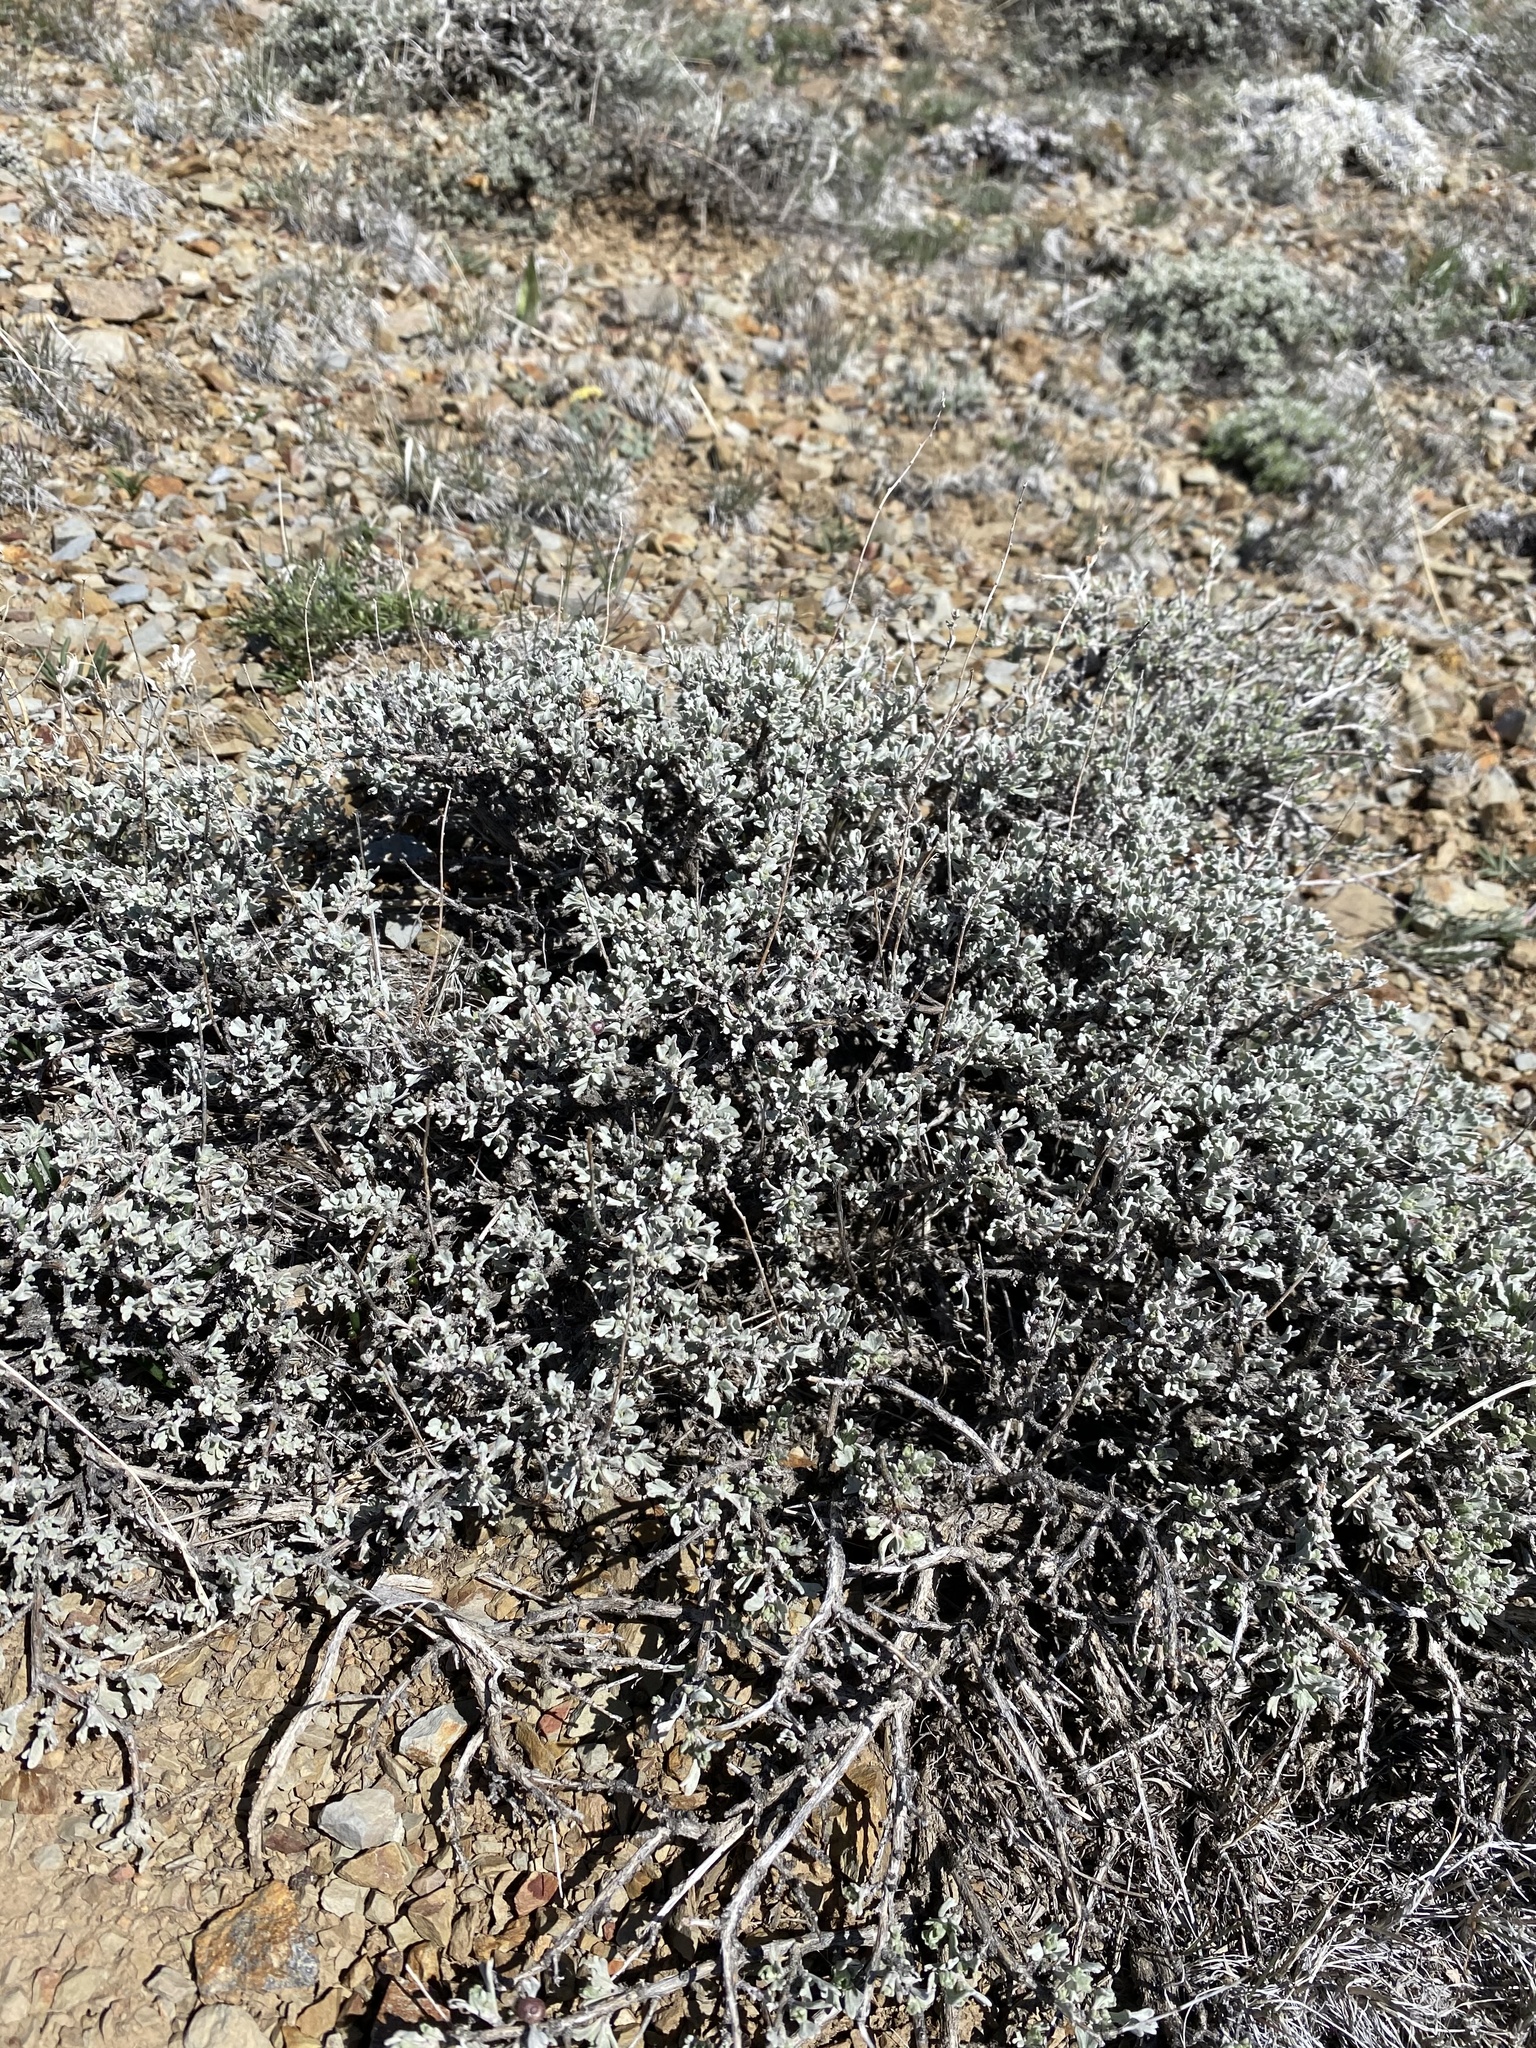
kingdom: Plantae
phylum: Tracheophyta
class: Magnoliopsida
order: Asterales
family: Asteraceae
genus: Artemisia
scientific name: Artemisia arbuscula
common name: Sagebrush
